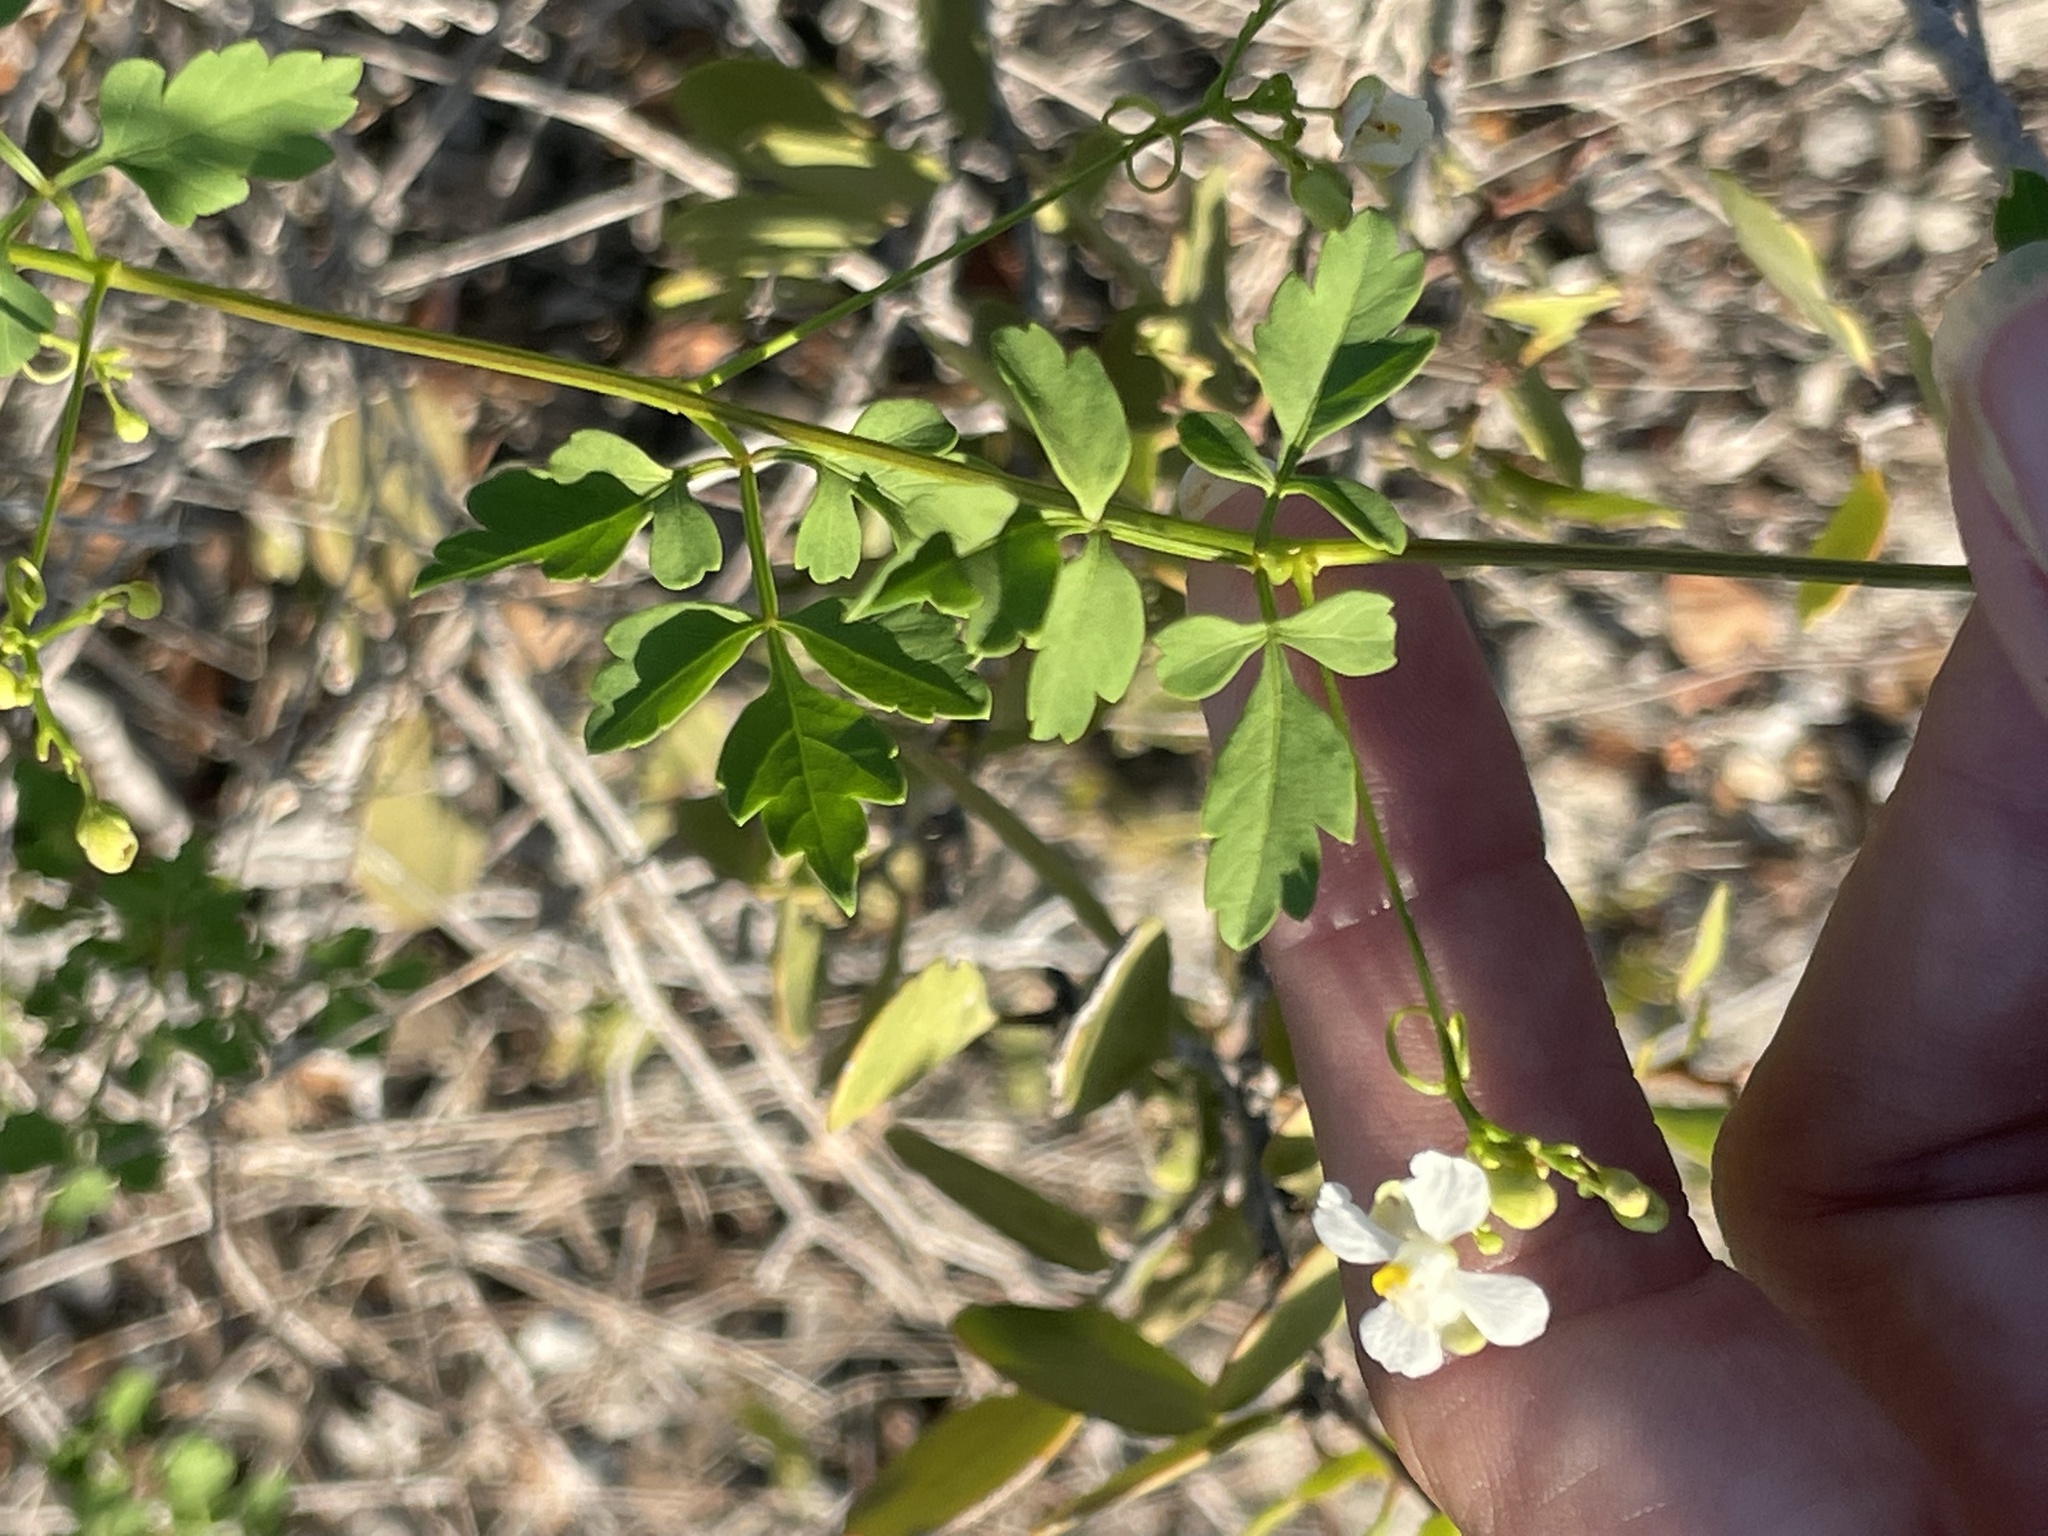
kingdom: Plantae
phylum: Tracheophyta
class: Magnoliopsida
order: Sapindales
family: Sapindaceae
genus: Cardiospermum
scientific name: Cardiospermum corindum
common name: Faux persil
